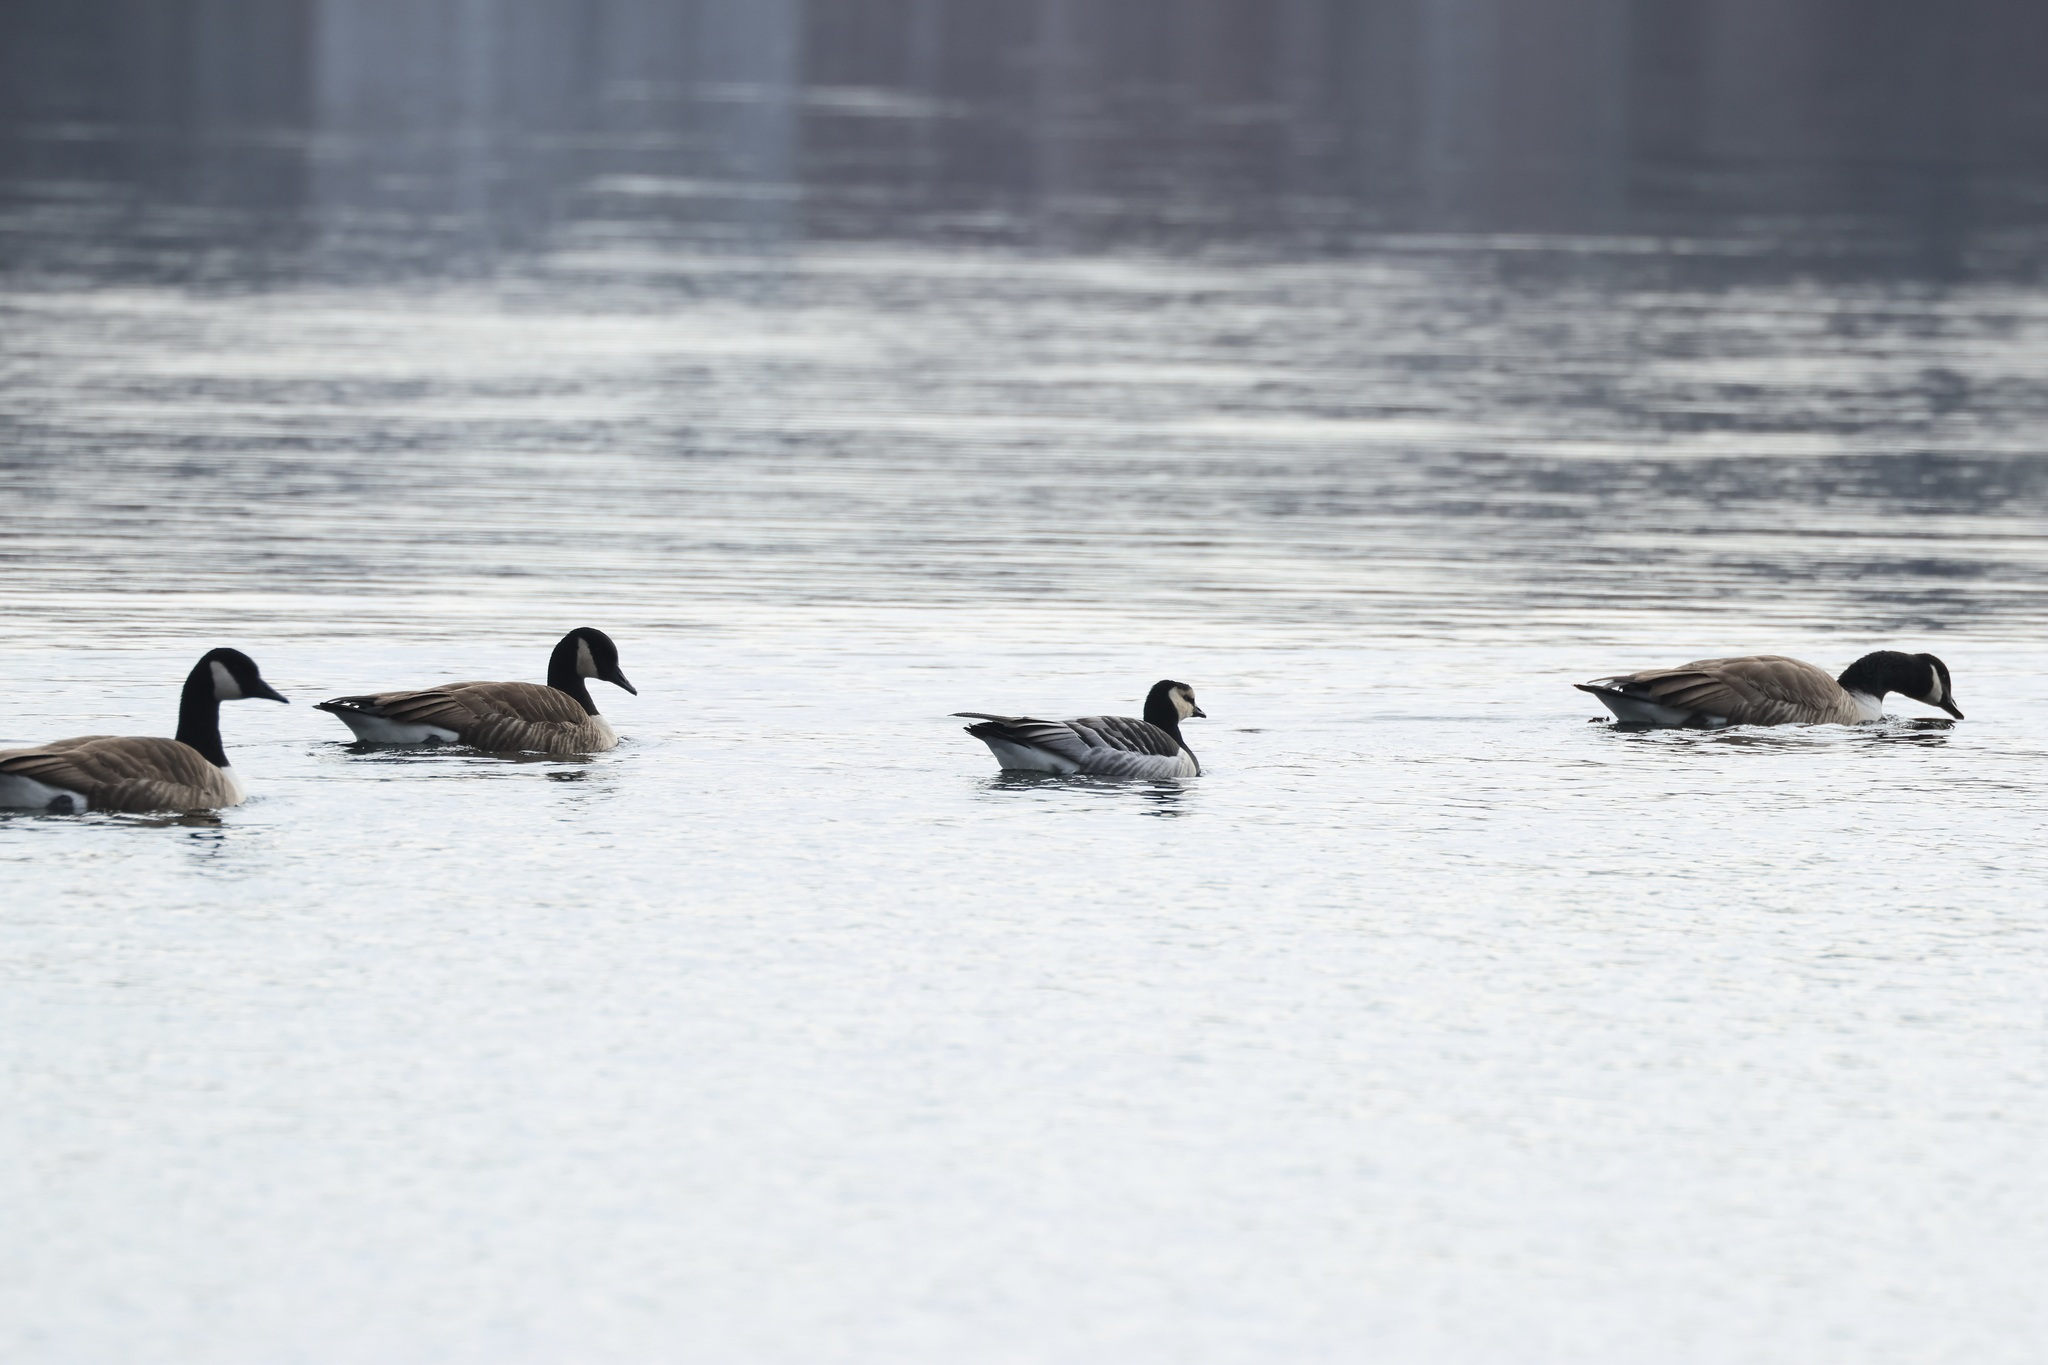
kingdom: Animalia
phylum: Chordata
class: Aves
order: Anseriformes
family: Anatidae
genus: Branta
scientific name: Branta leucopsis
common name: Barnacle goose
